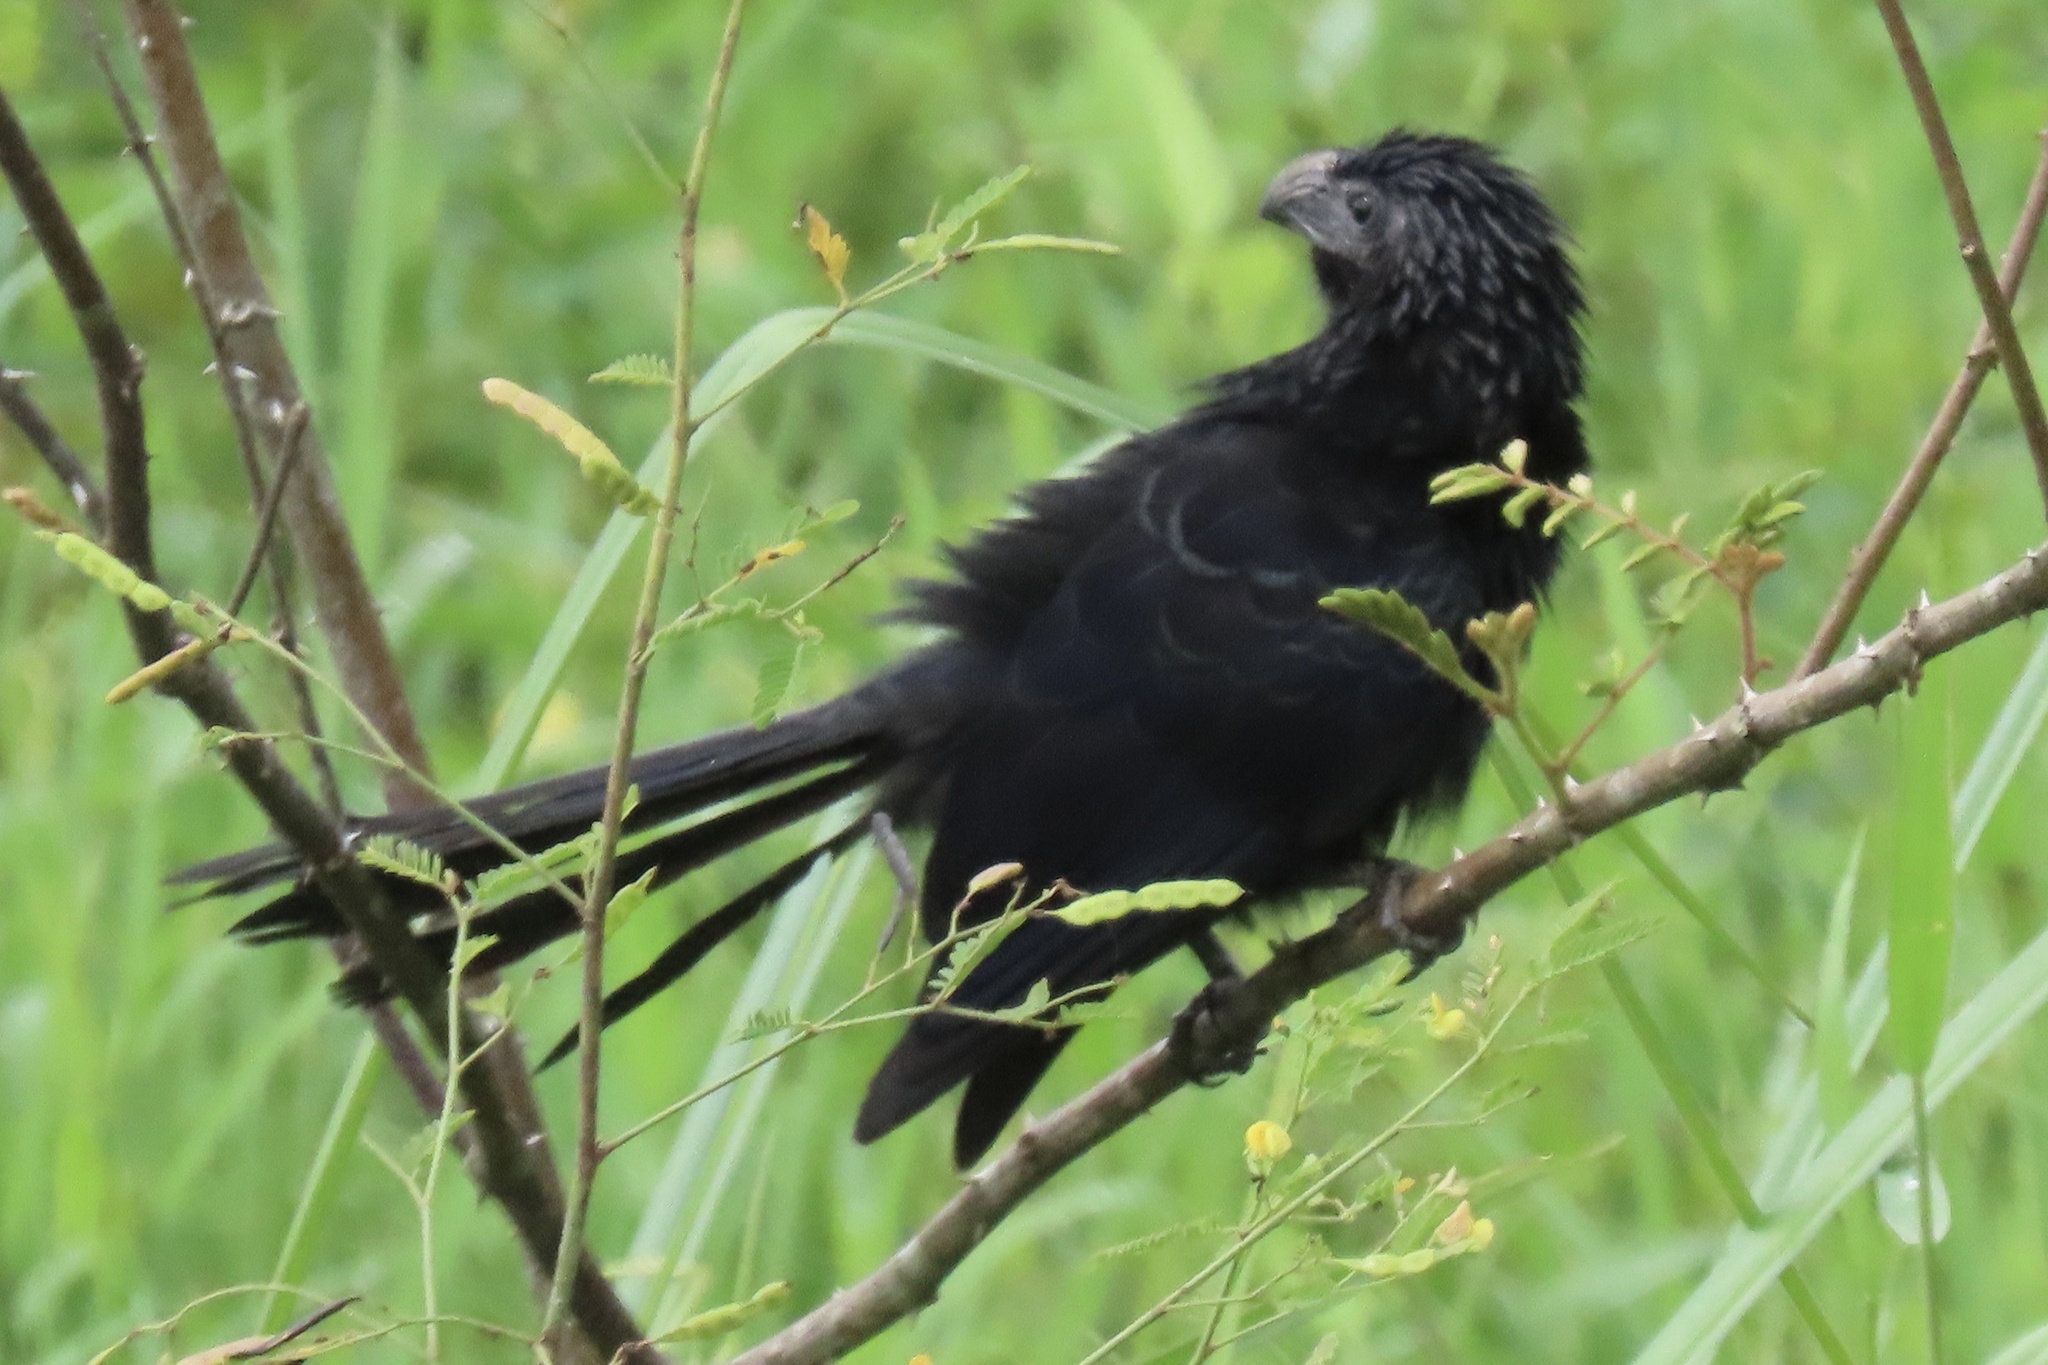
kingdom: Animalia
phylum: Chordata
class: Aves
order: Cuculiformes
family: Cuculidae
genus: Crotophaga
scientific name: Crotophaga sulcirostris
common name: Groove-billed ani
